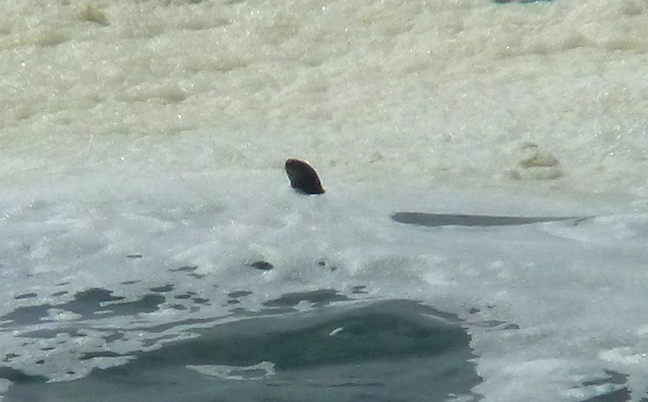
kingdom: Animalia
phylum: Chordata
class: Mammalia
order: Carnivora
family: Mustelidae
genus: Enhydra
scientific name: Enhydra lutris
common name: Sea otter
